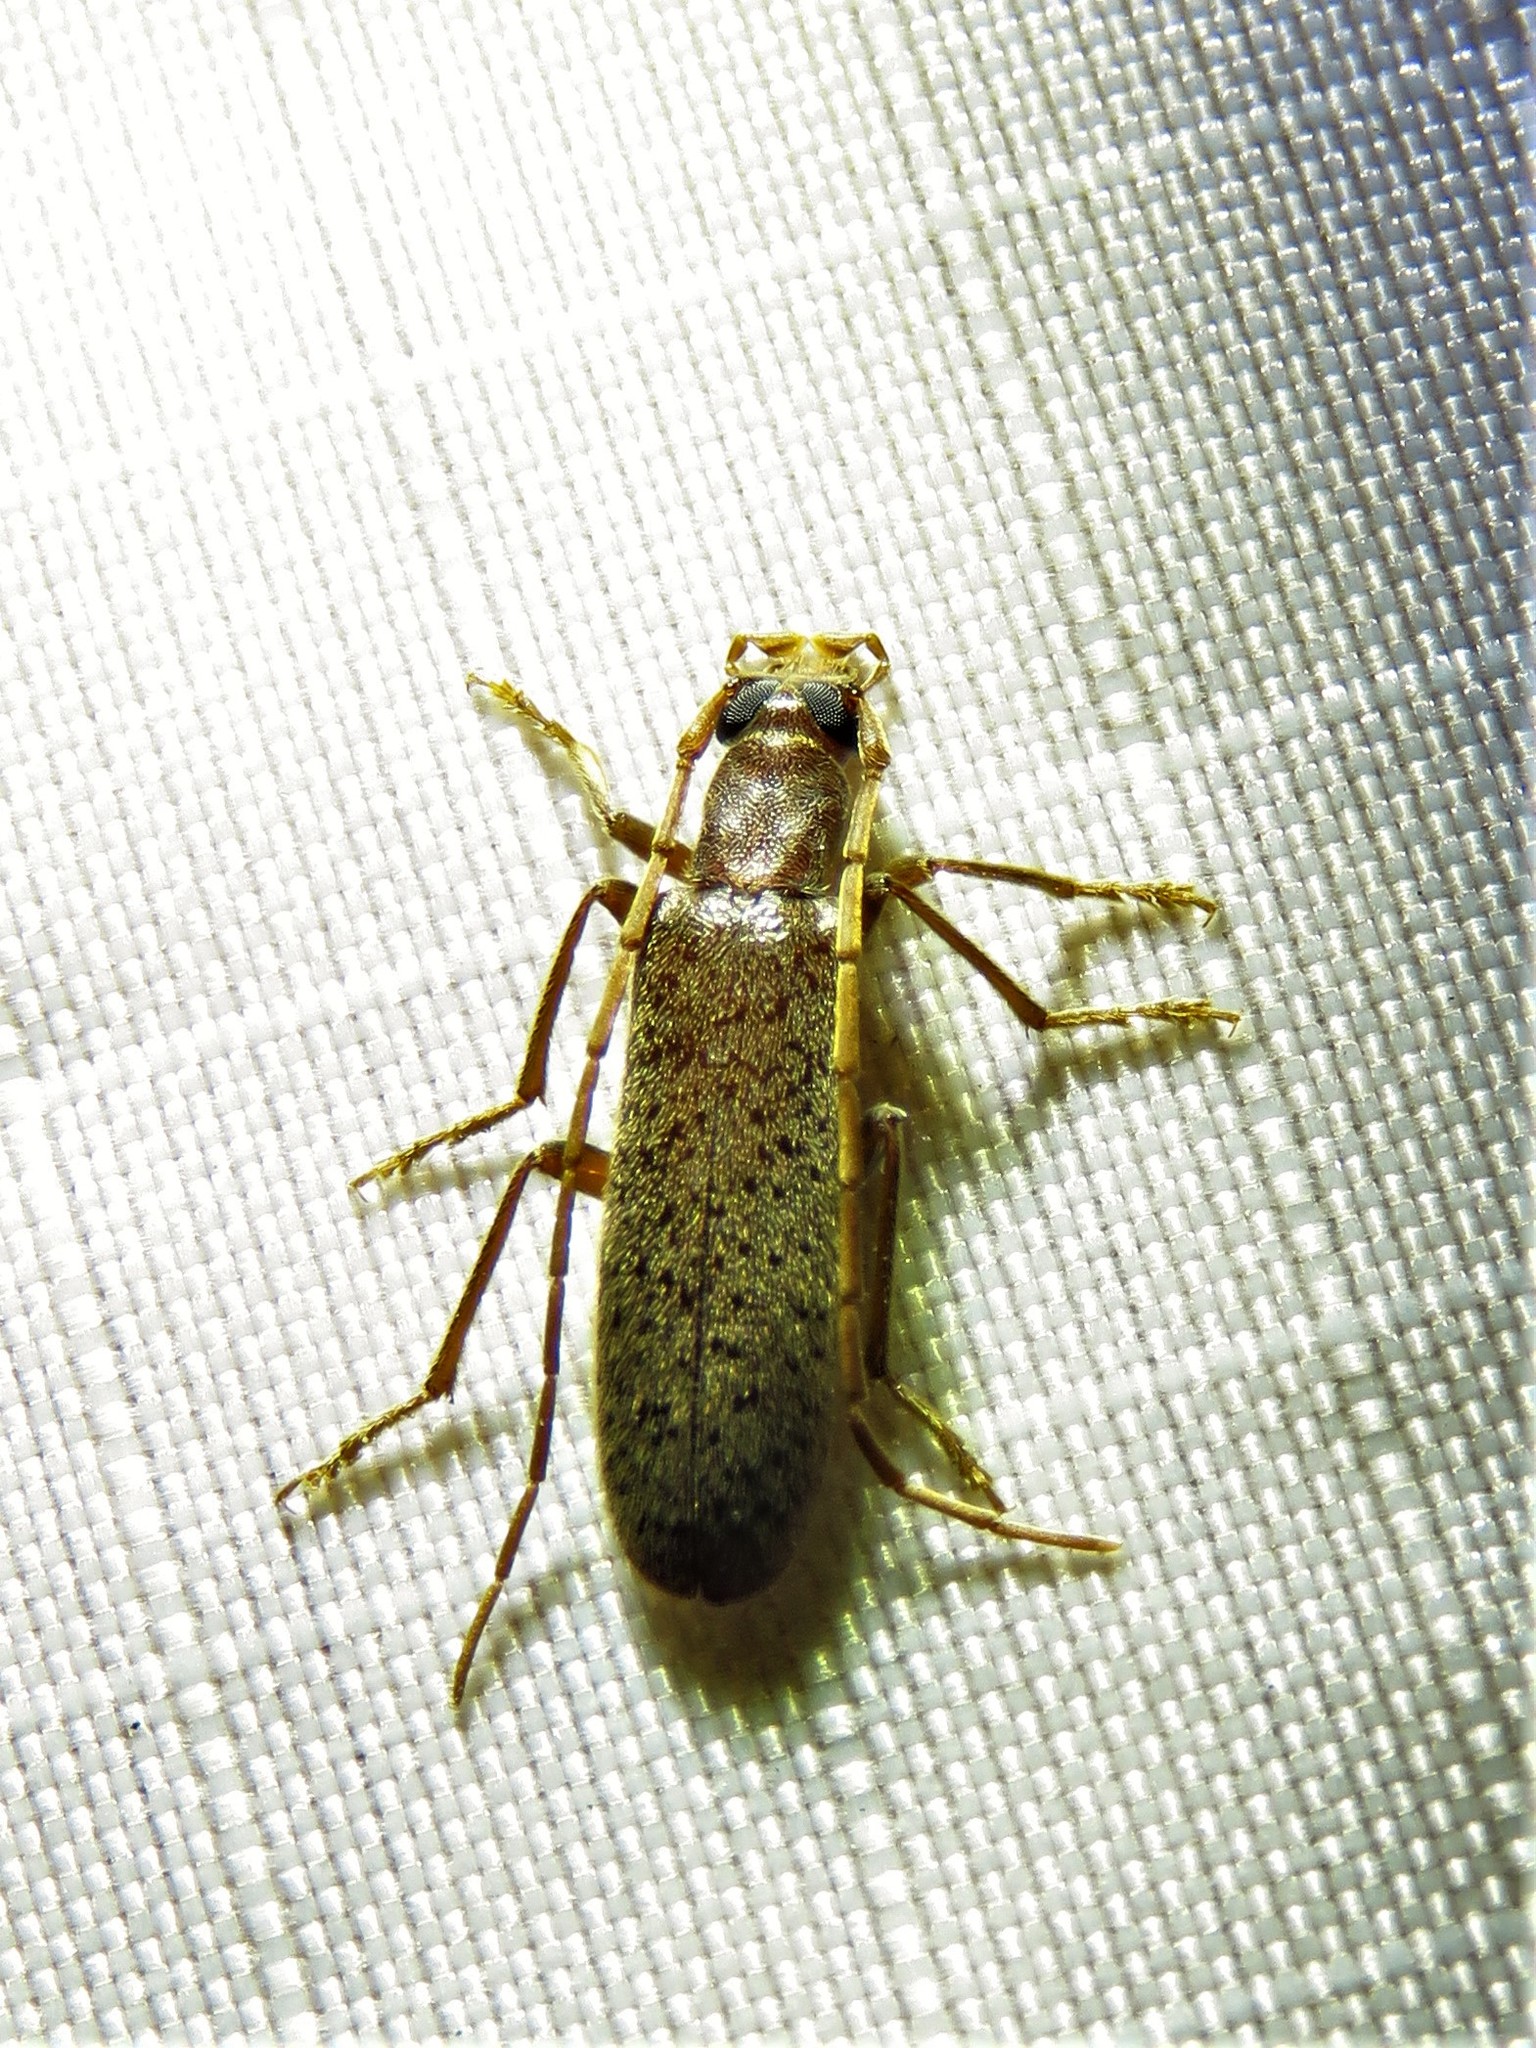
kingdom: Animalia
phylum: Arthropoda
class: Insecta
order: Coleoptera
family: Oedemeridae
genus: Sparedrus
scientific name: Sparedrus aspersus
